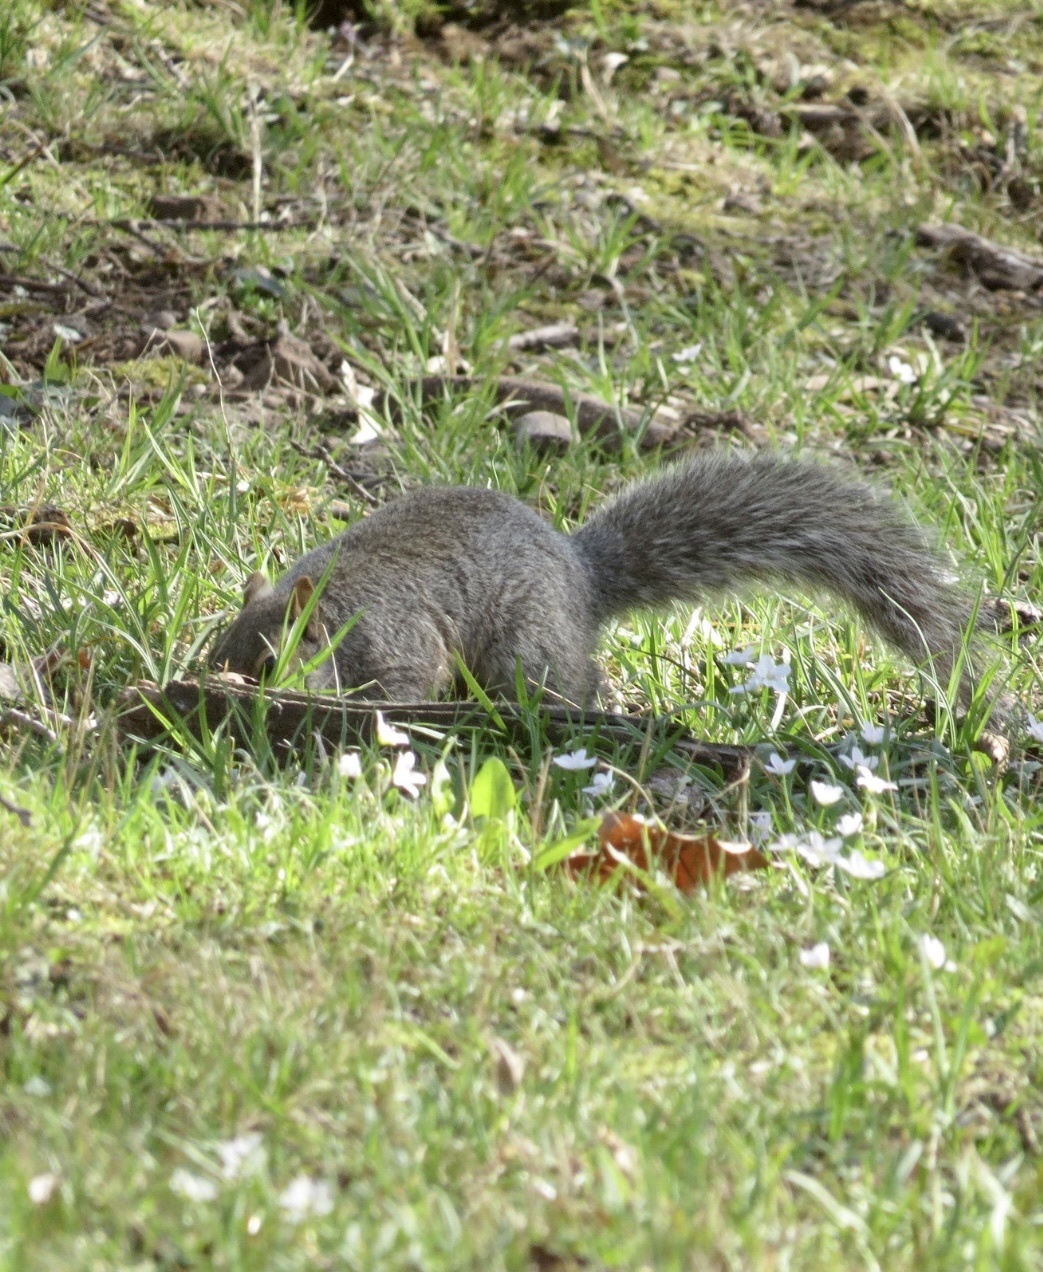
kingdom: Animalia
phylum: Chordata
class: Mammalia
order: Rodentia
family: Sciuridae
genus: Sciurus
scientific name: Sciurus carolinensis
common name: Eastern gray squirrel
